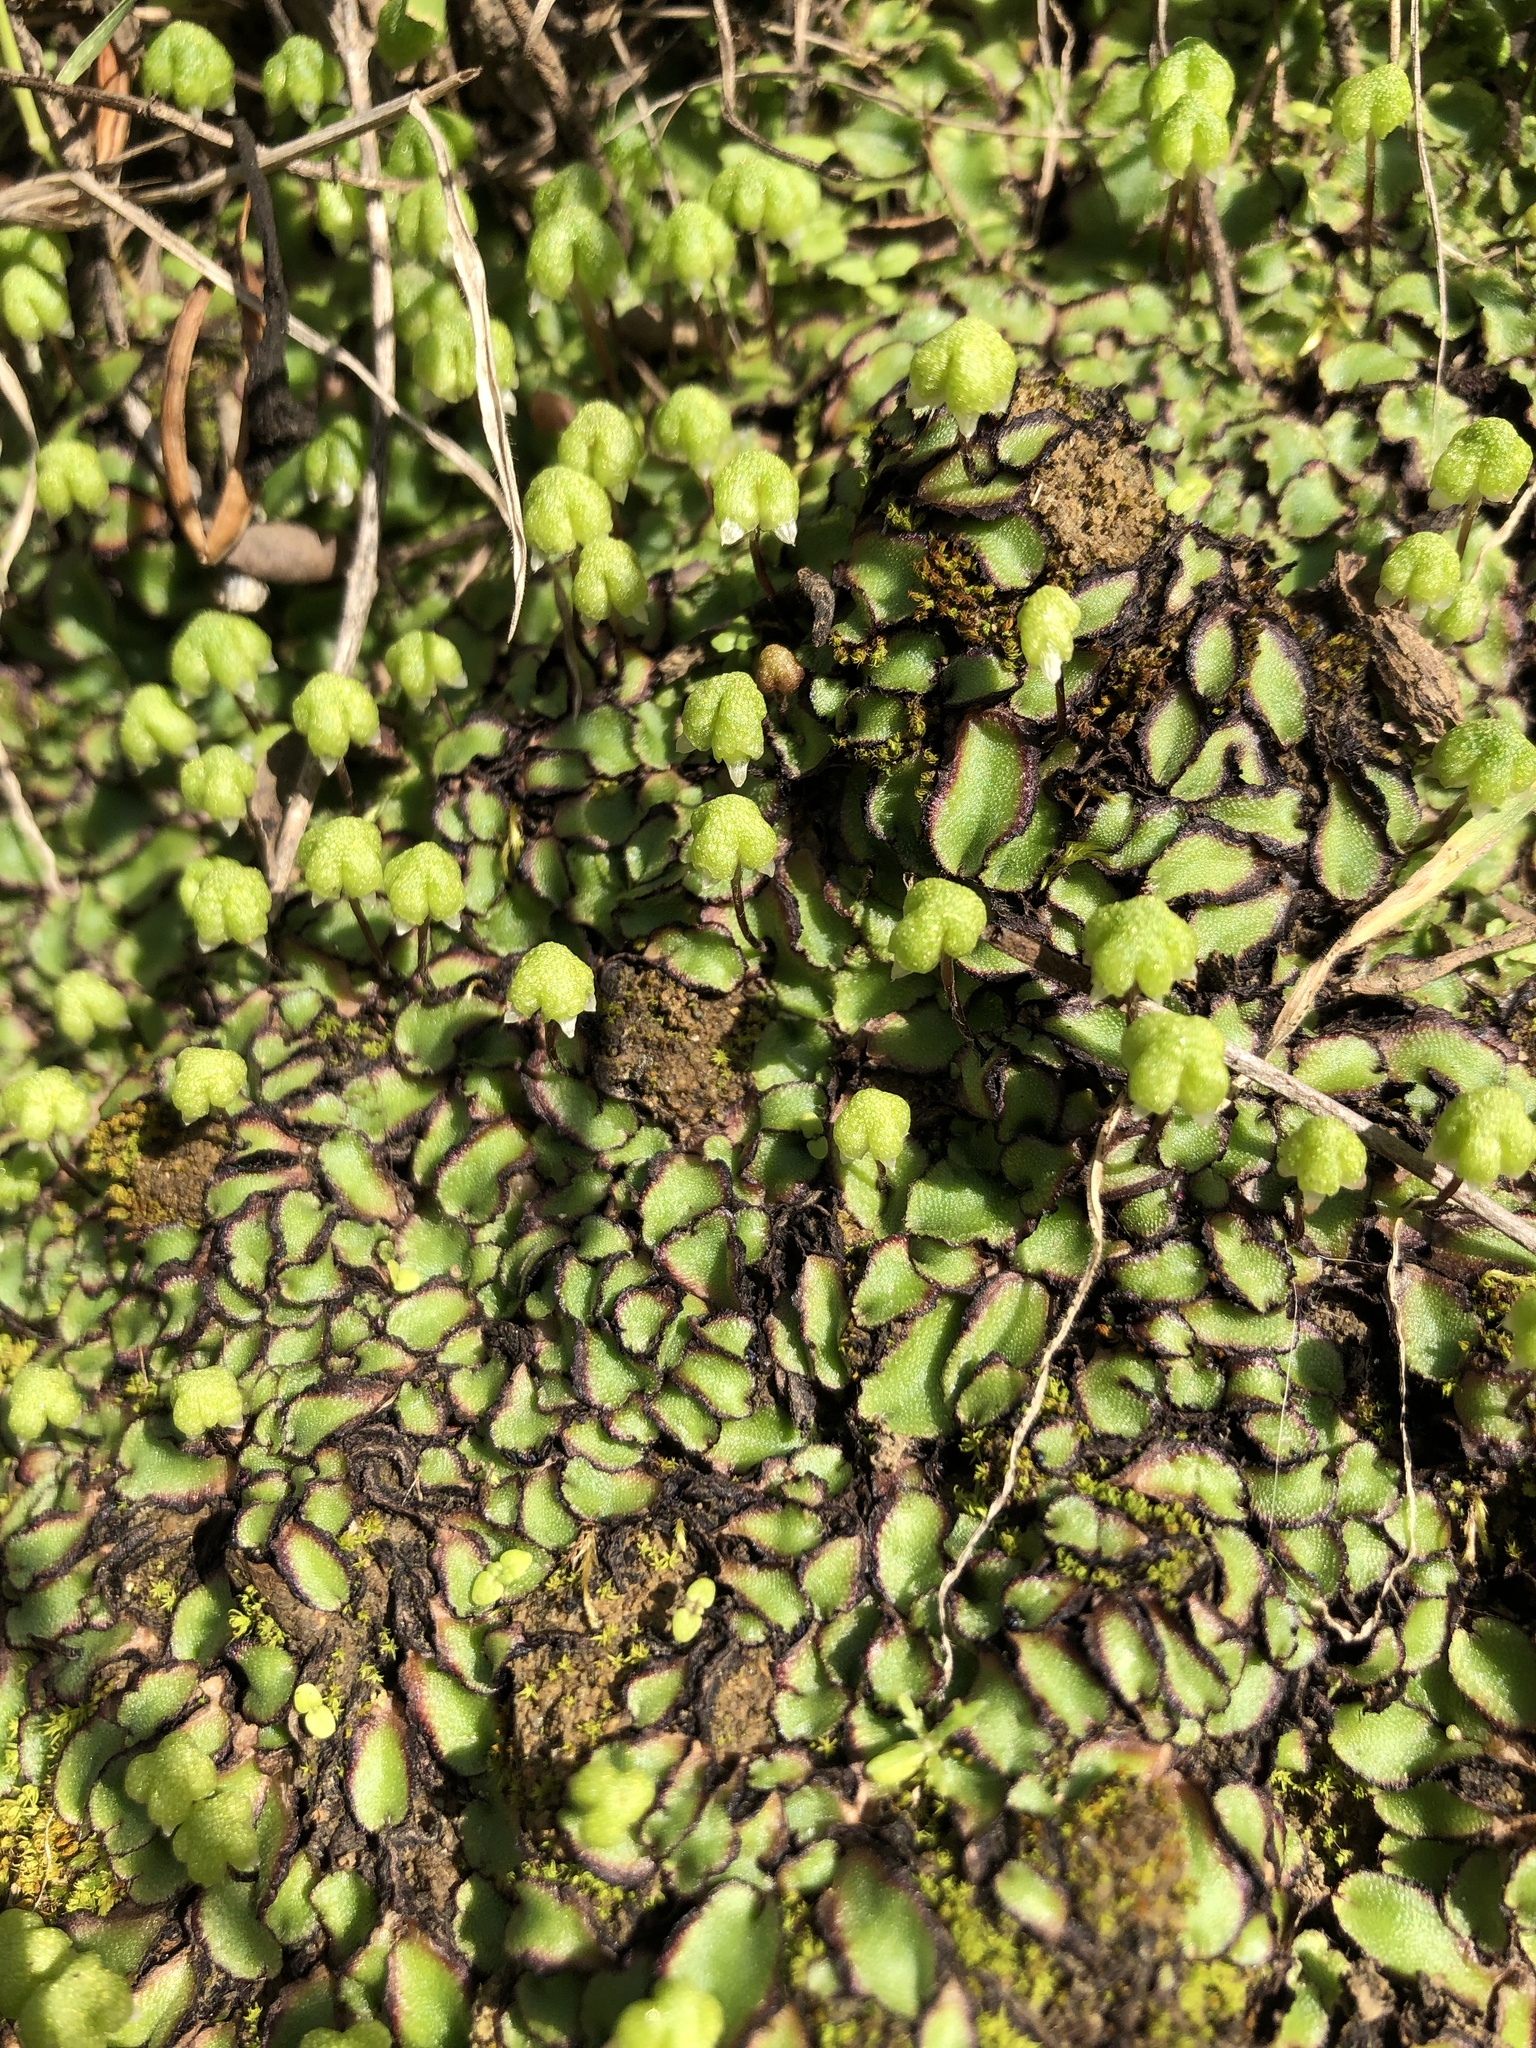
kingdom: Plantae
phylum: Marchantiophyta
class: Marchantiopsida
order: Marchantiales
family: Aytoniaceae
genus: Asterella
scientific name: Asterella californica
